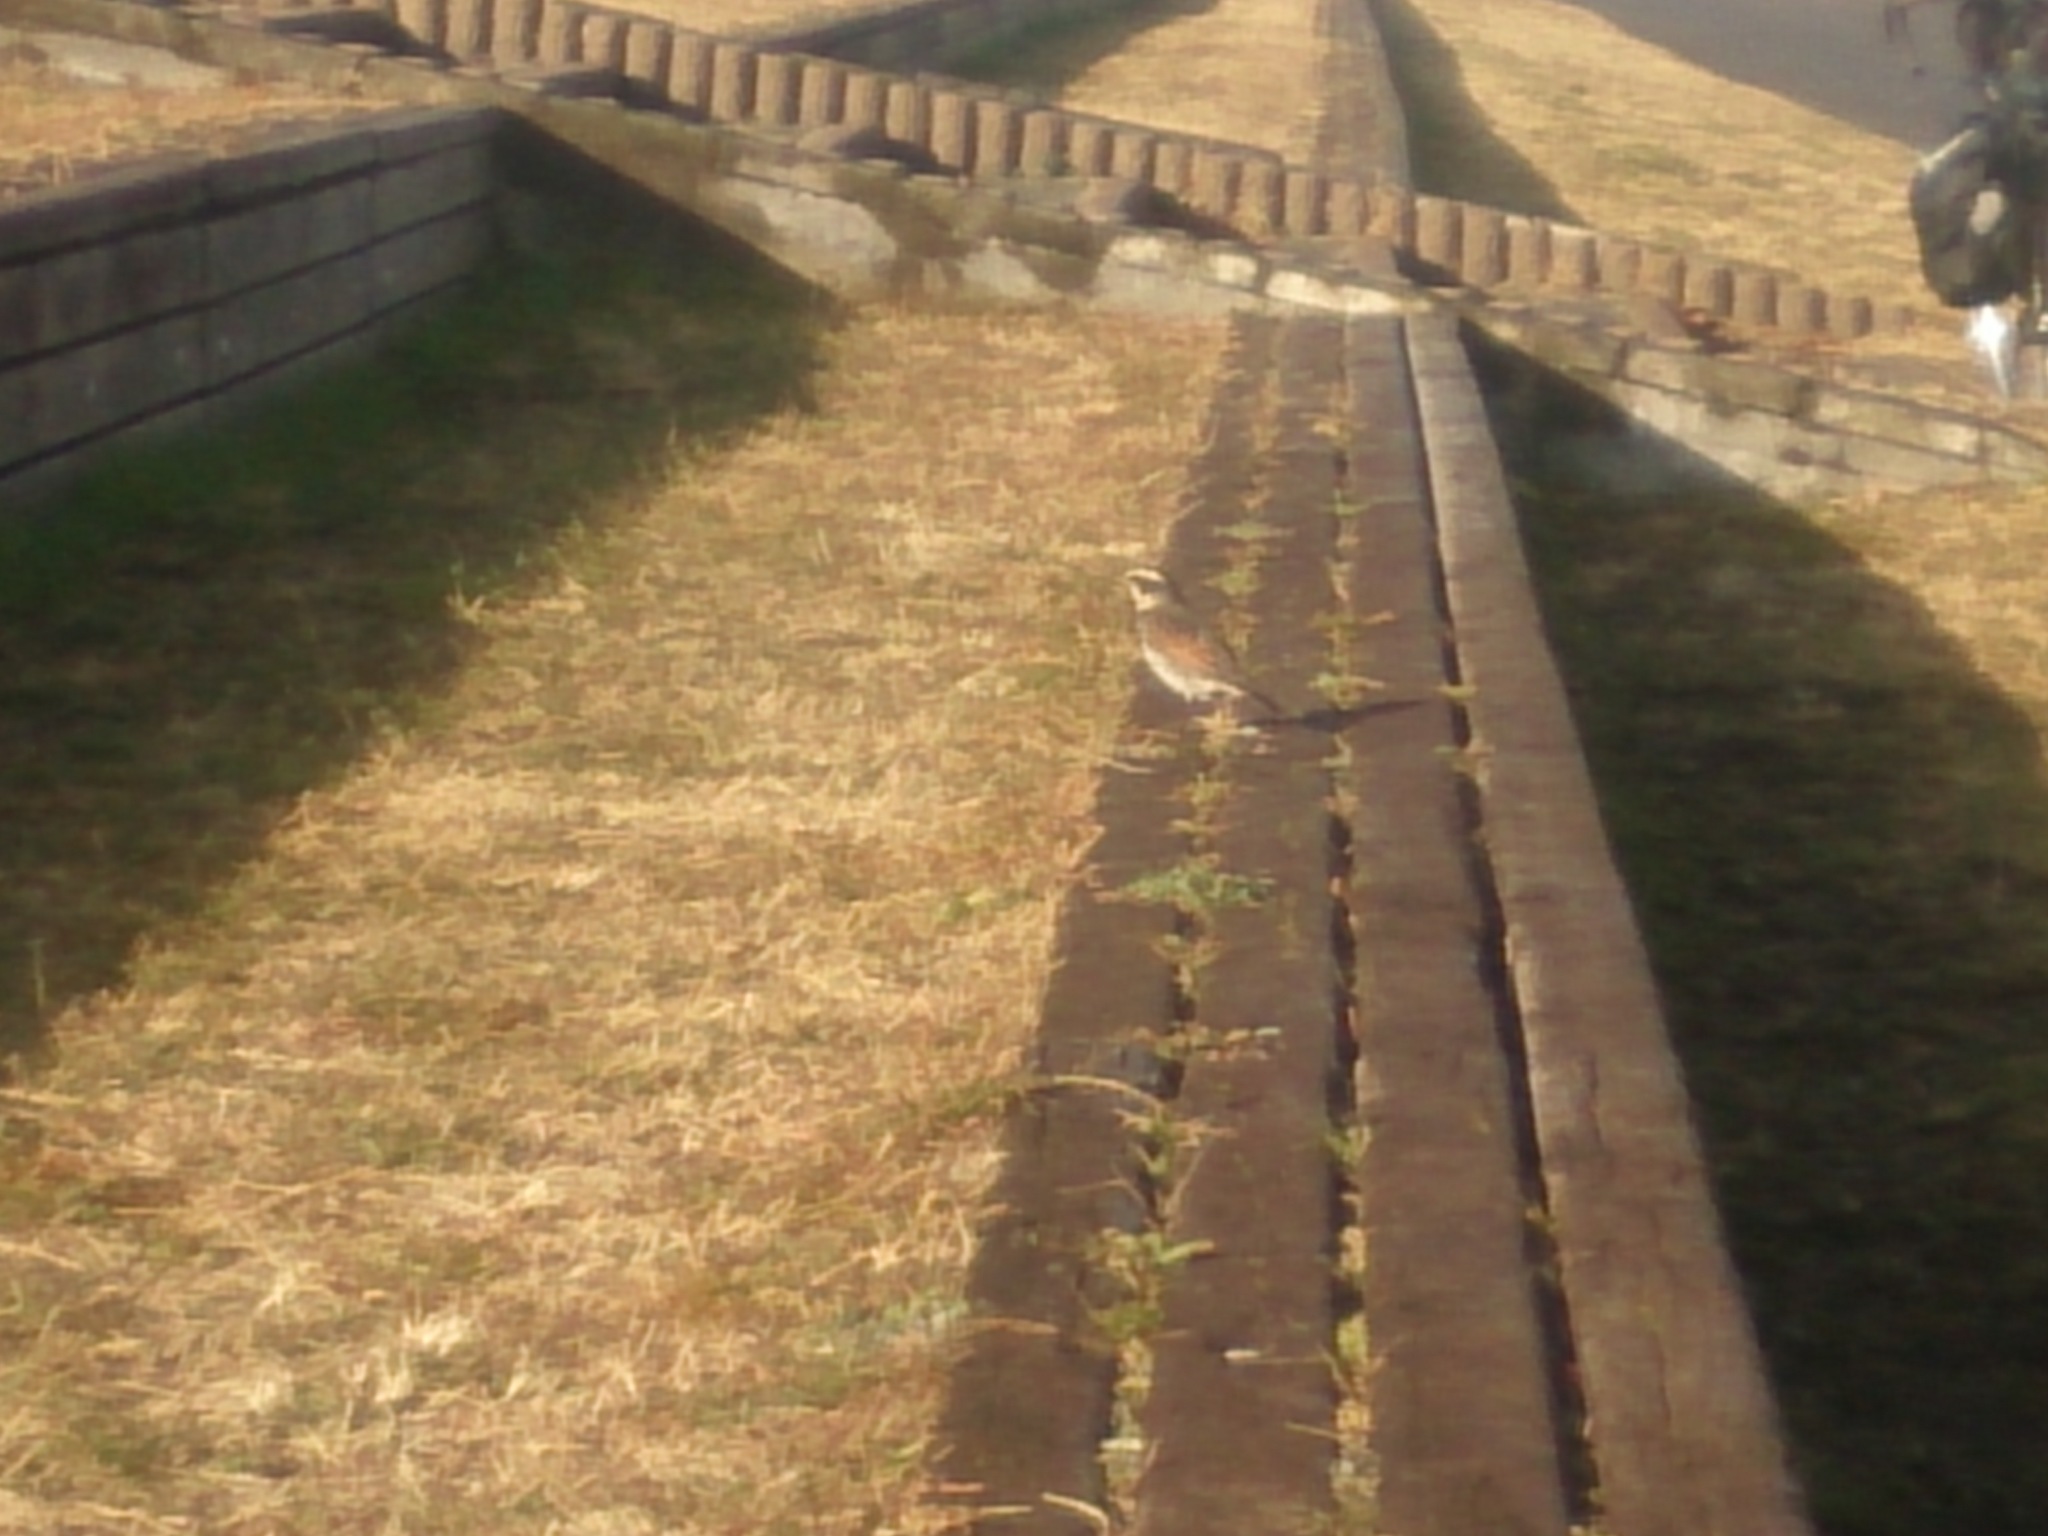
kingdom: Animalia
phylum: Chordata
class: Aves
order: Passeriformes
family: Turdidae
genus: Turdus
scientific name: Turdus eunomus
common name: Dusky thrush
